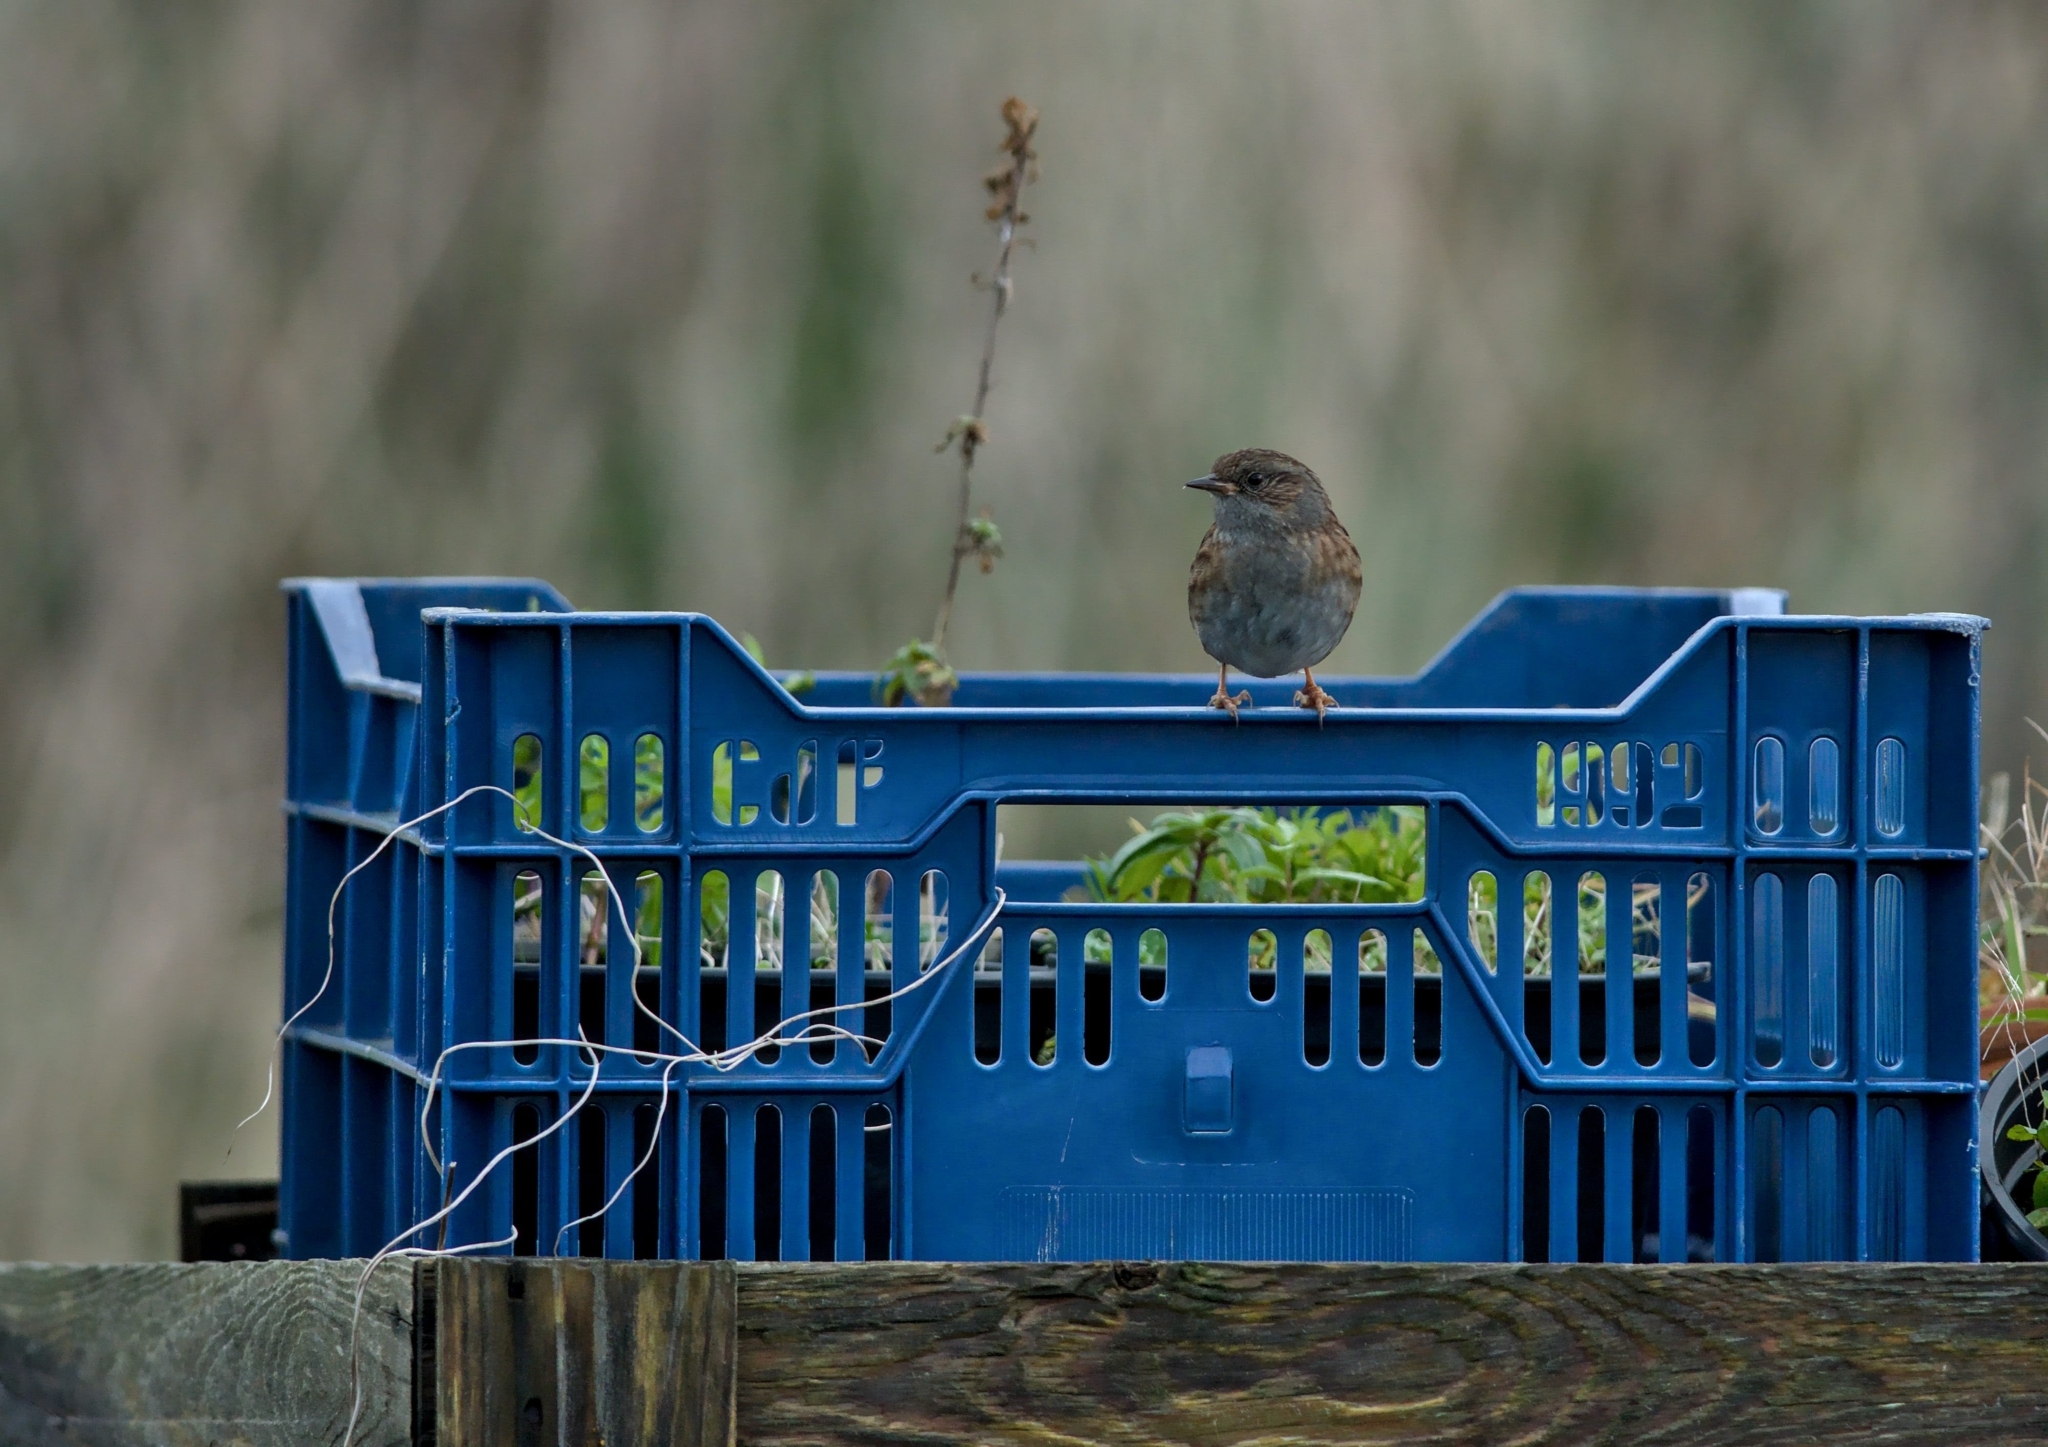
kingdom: Animalia
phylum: Chordata
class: Aves
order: Passeriformes
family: Prunellidae
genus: Prunella
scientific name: Prunella modularis
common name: Dunnock
